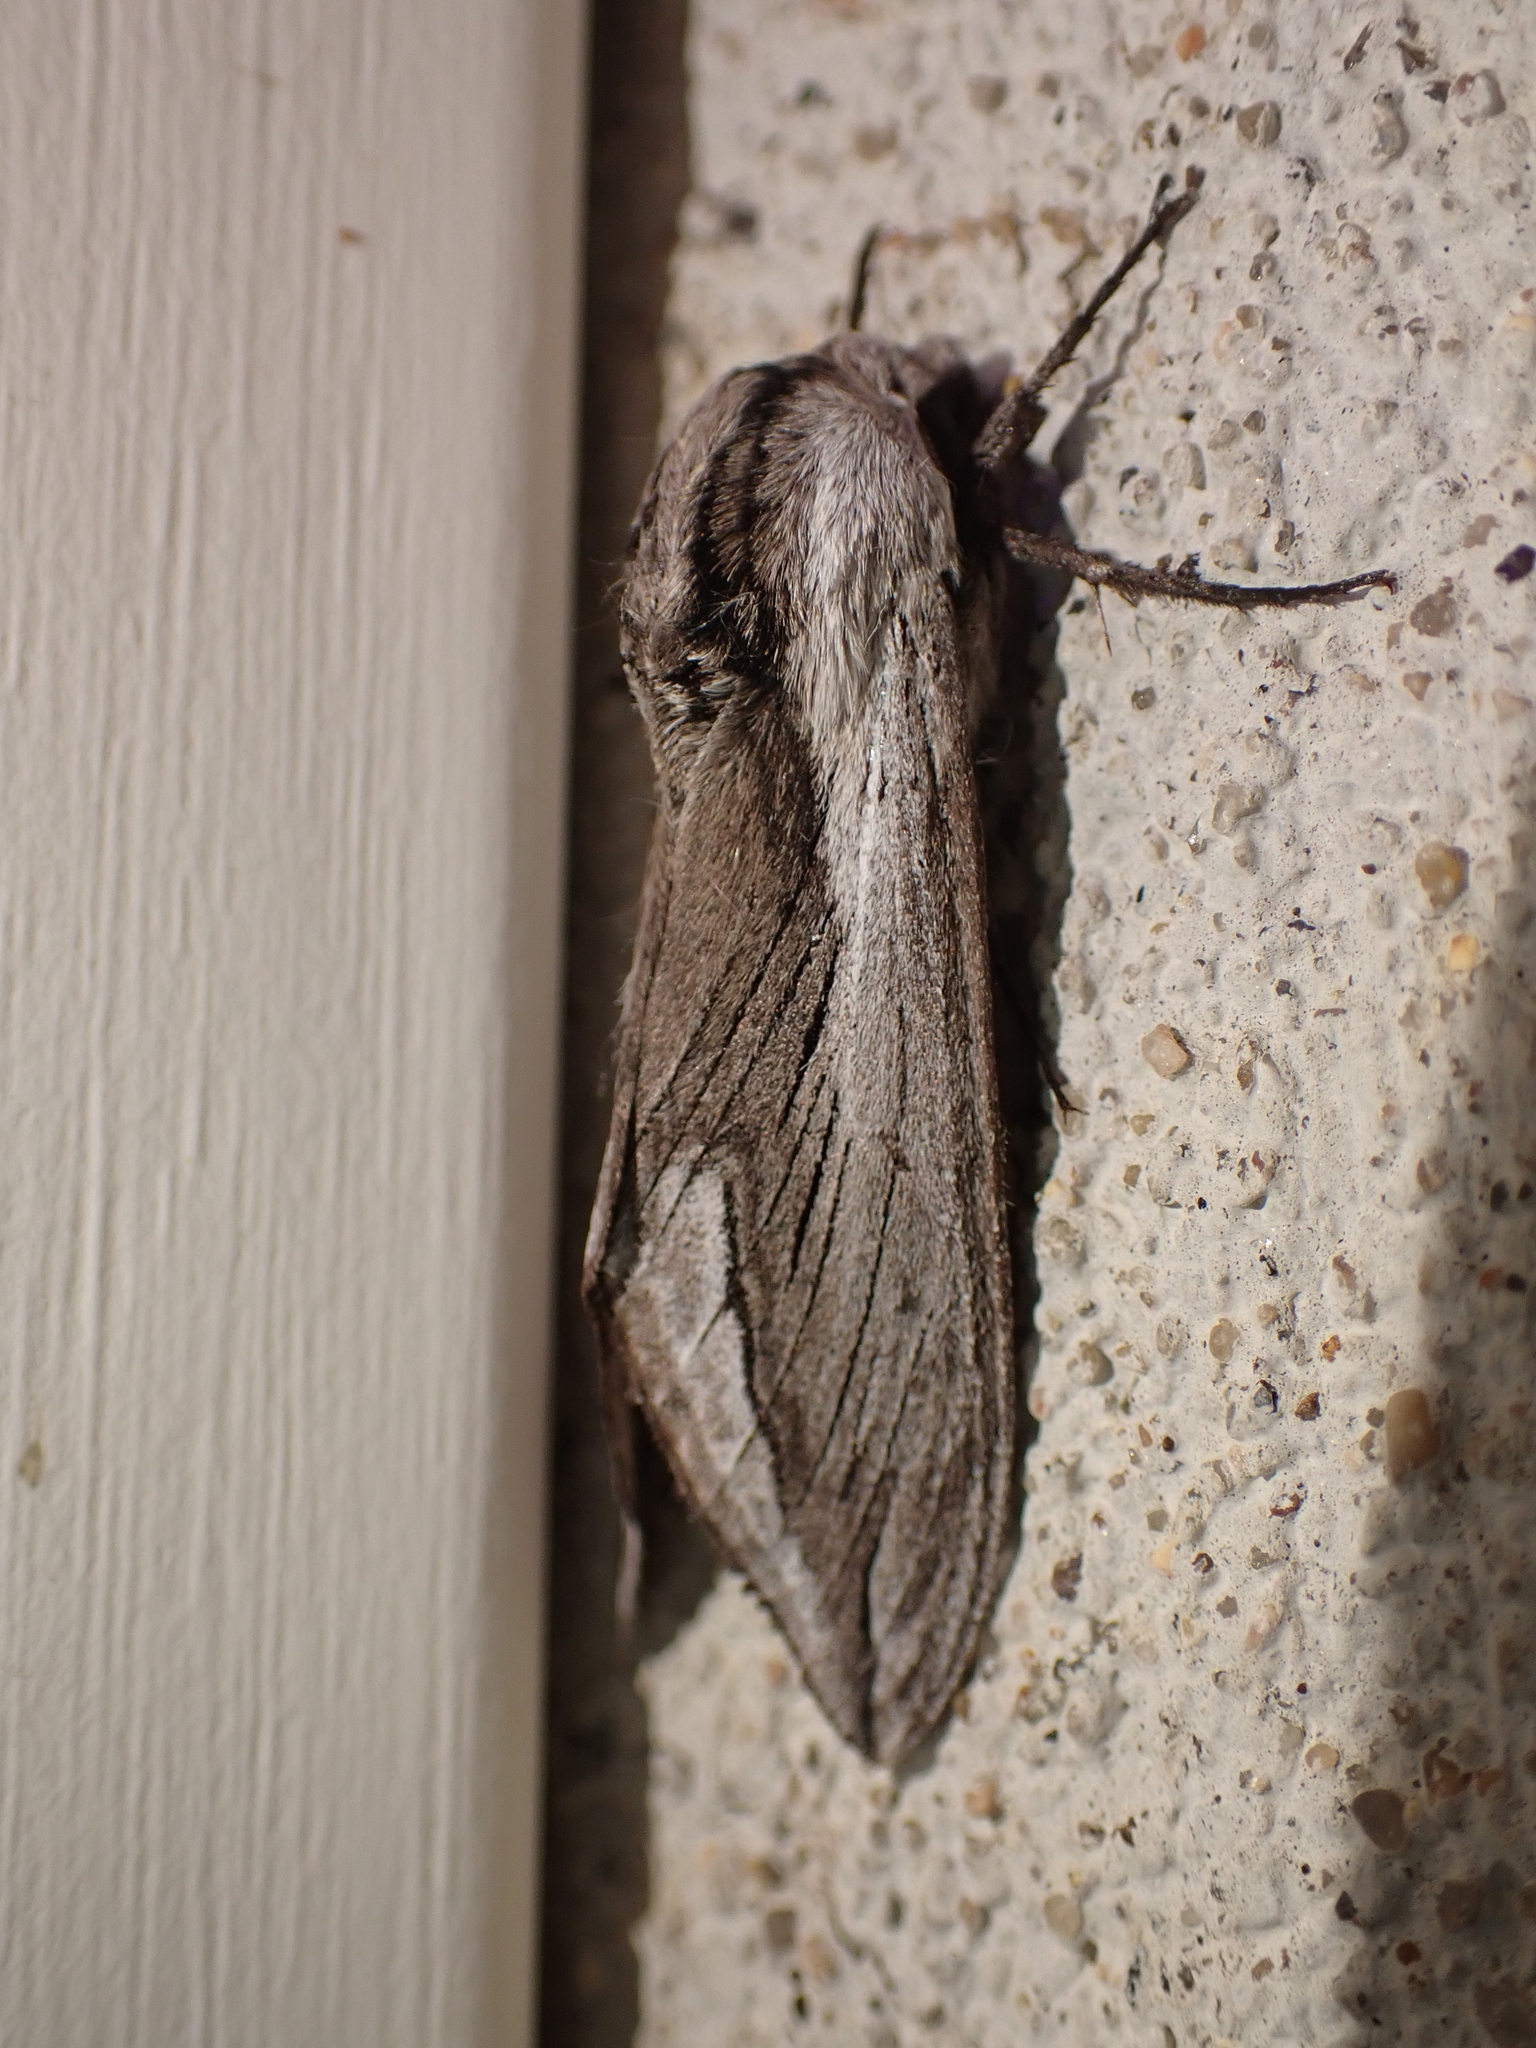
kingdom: Animalia
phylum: Arthropoda
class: Insecta
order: Lepidoptera
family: Sphingidae
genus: Sphinx
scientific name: Sphinx vashti
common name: Snowberry sphinx
